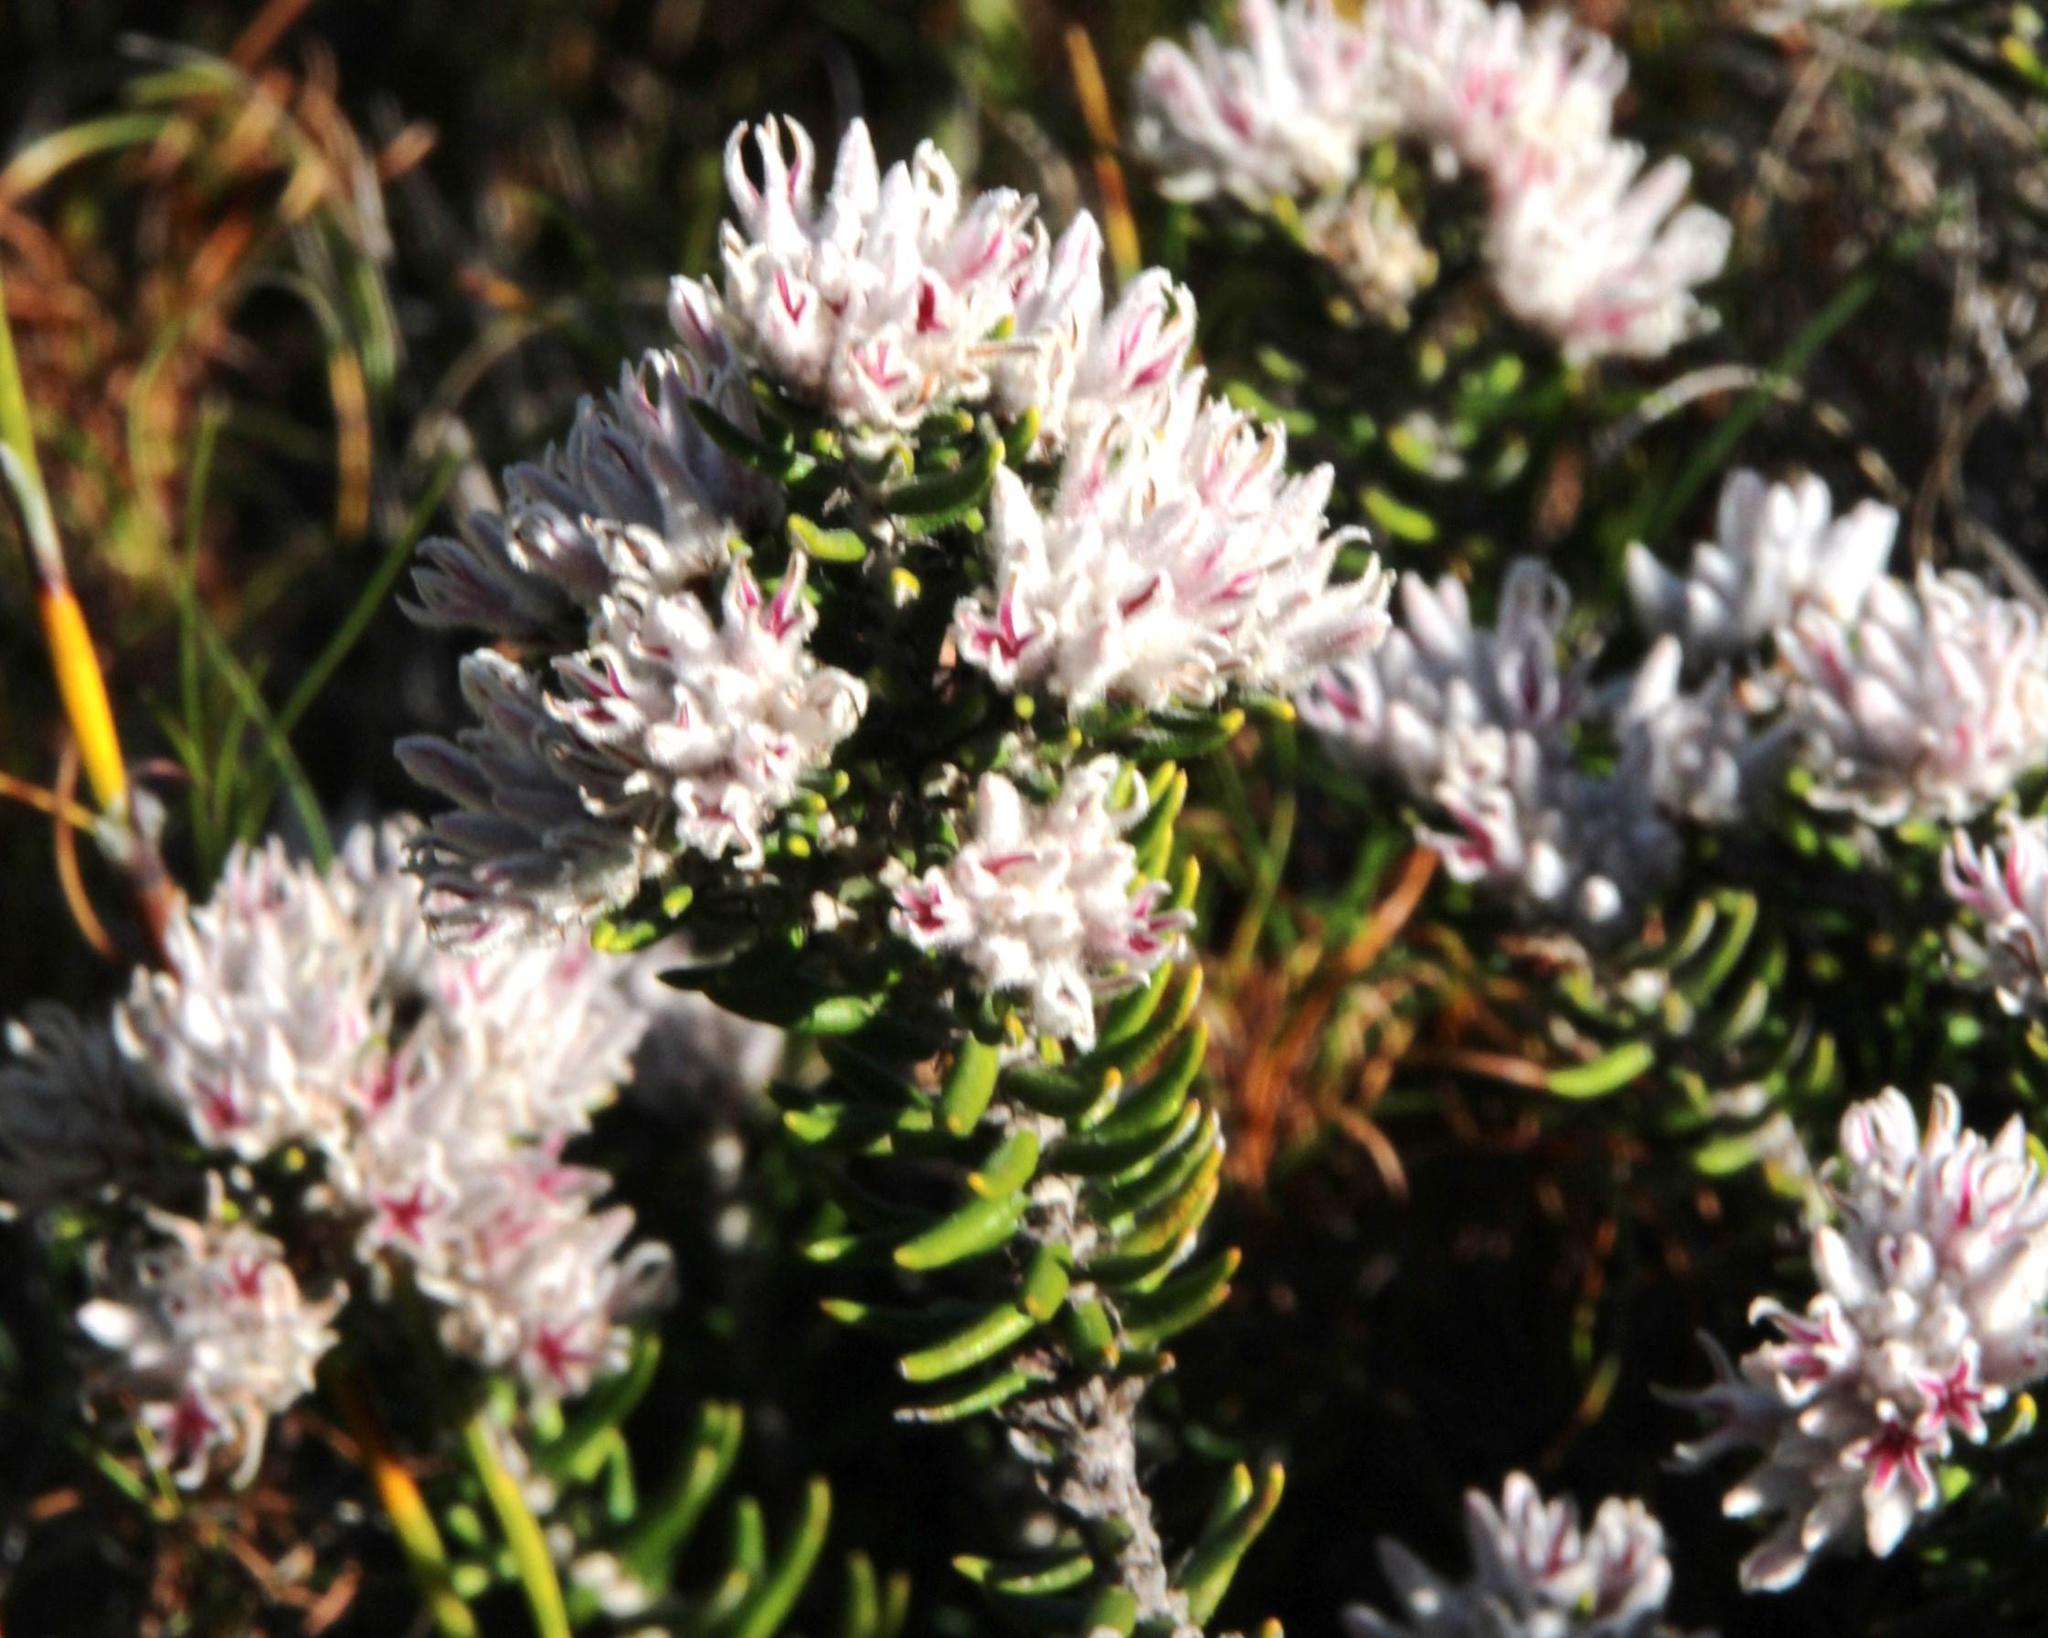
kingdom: Plantae
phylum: Tracheophyta
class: Magnoliopsida
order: Rosales
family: Rhamnaceae
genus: Trichocephalus
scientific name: Trichocephalus stipularis
